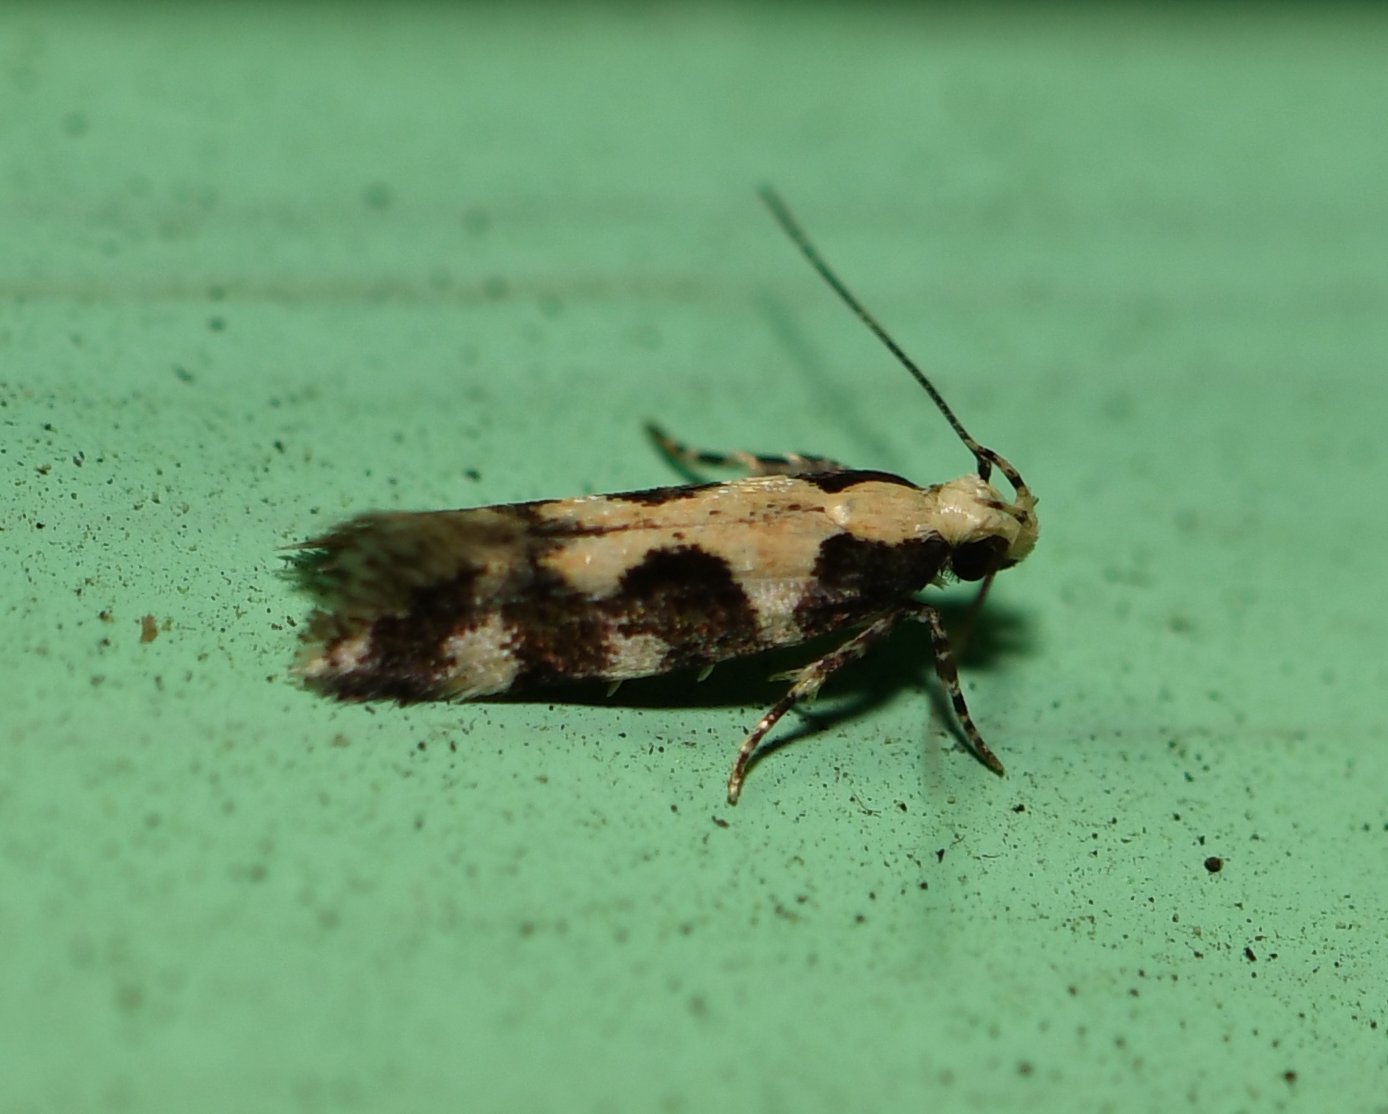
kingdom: Animalia
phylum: Arthropoda
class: Insecta
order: Lepidoptera
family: Gelechiidae
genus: Stegasta
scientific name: Stegasta capitella
